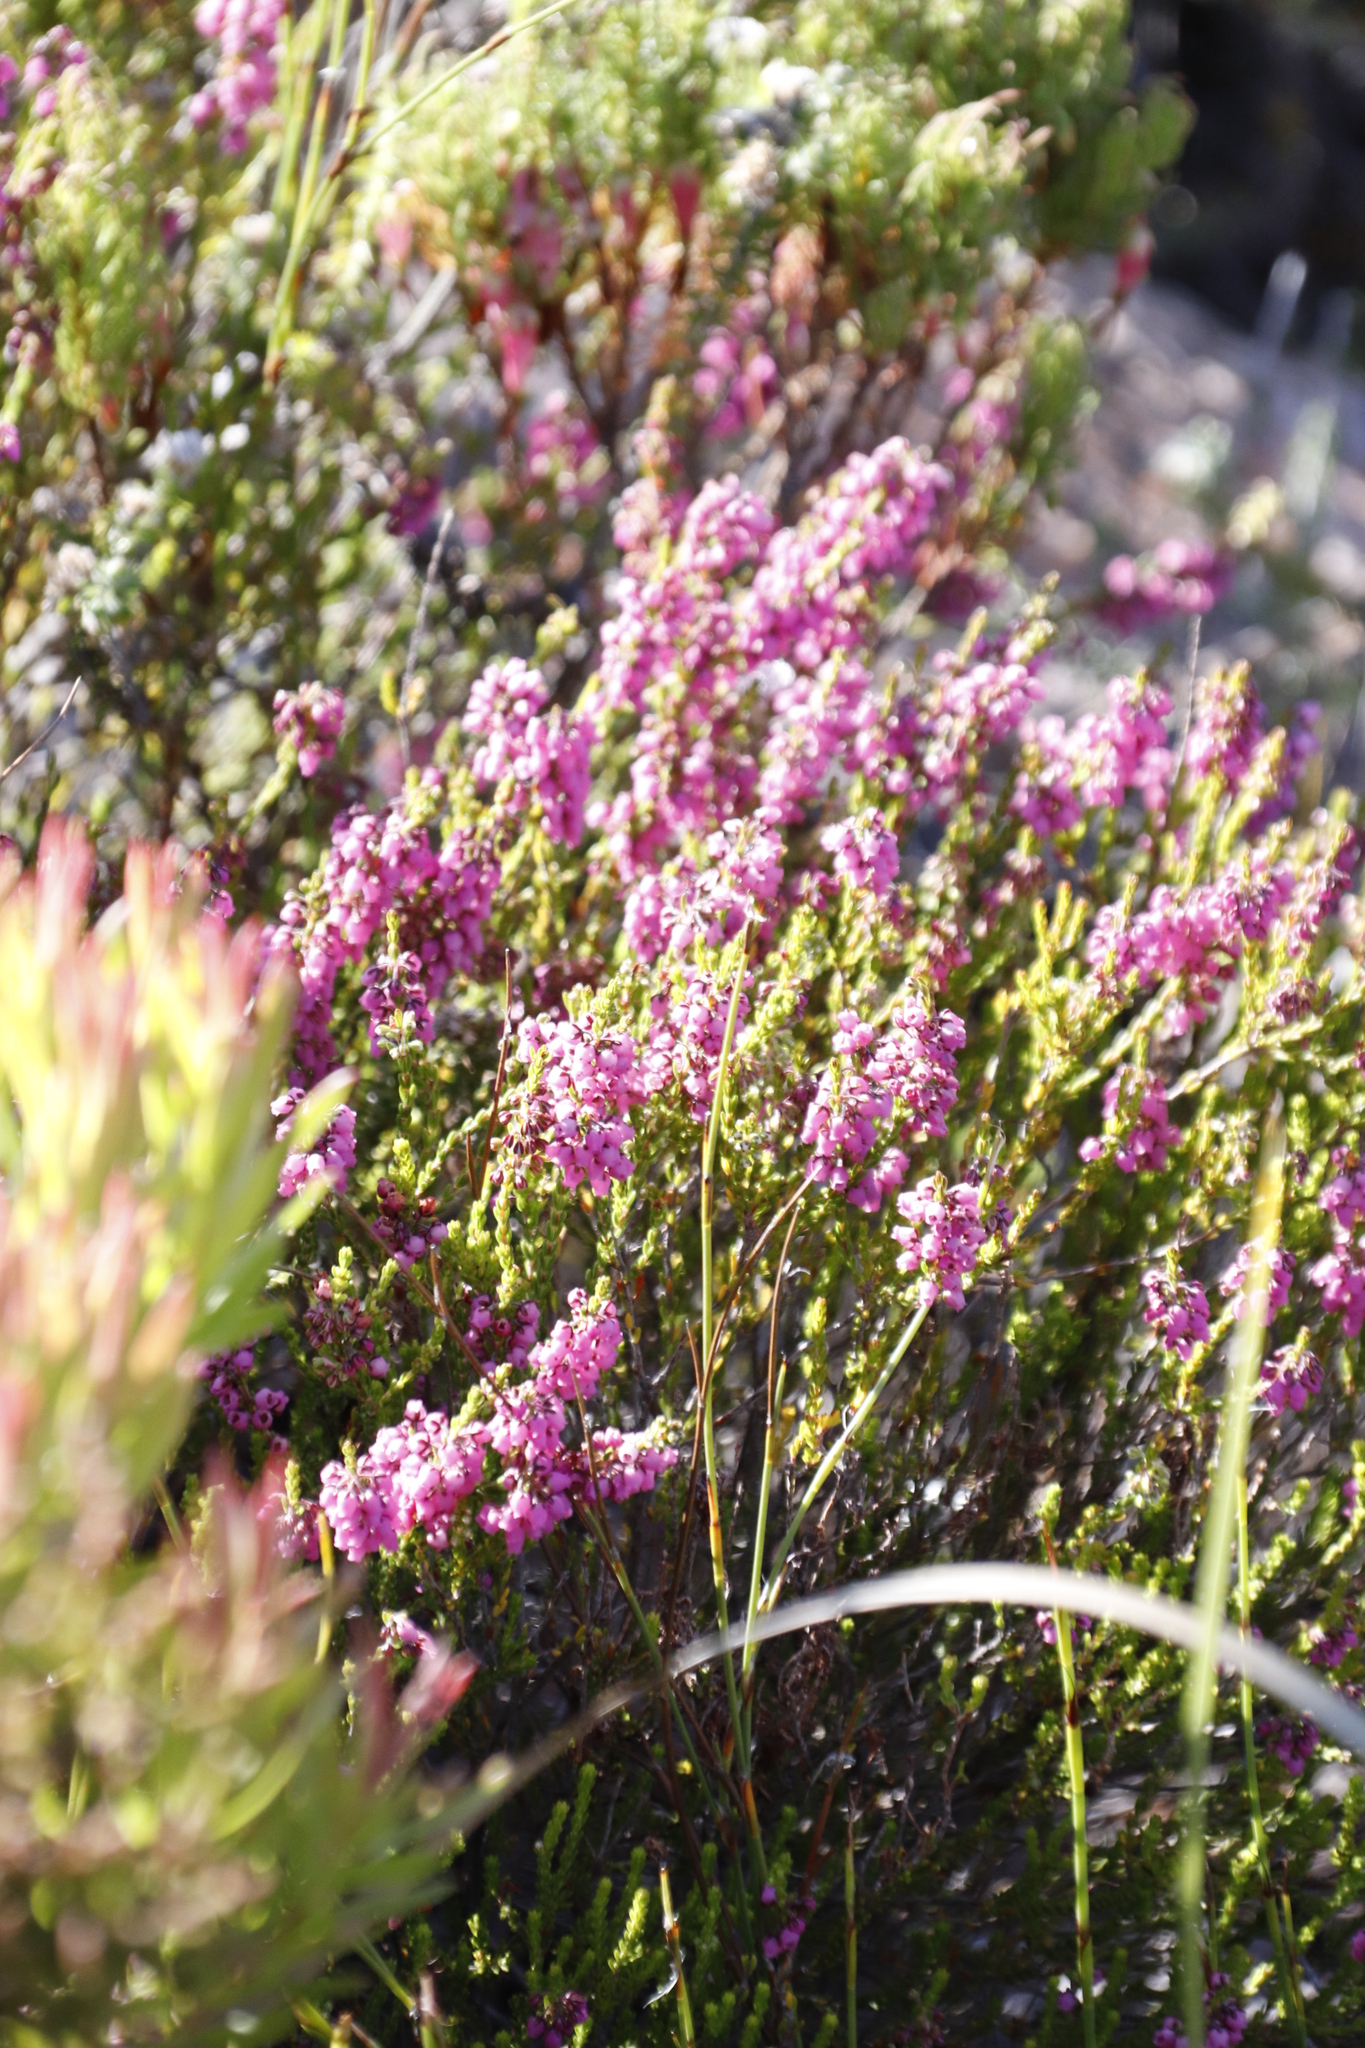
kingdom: Plantae
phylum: Tracheophyta
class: Magnoliopsida
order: Ericales
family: Ericaceae
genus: Erica
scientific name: Erica pulchella
